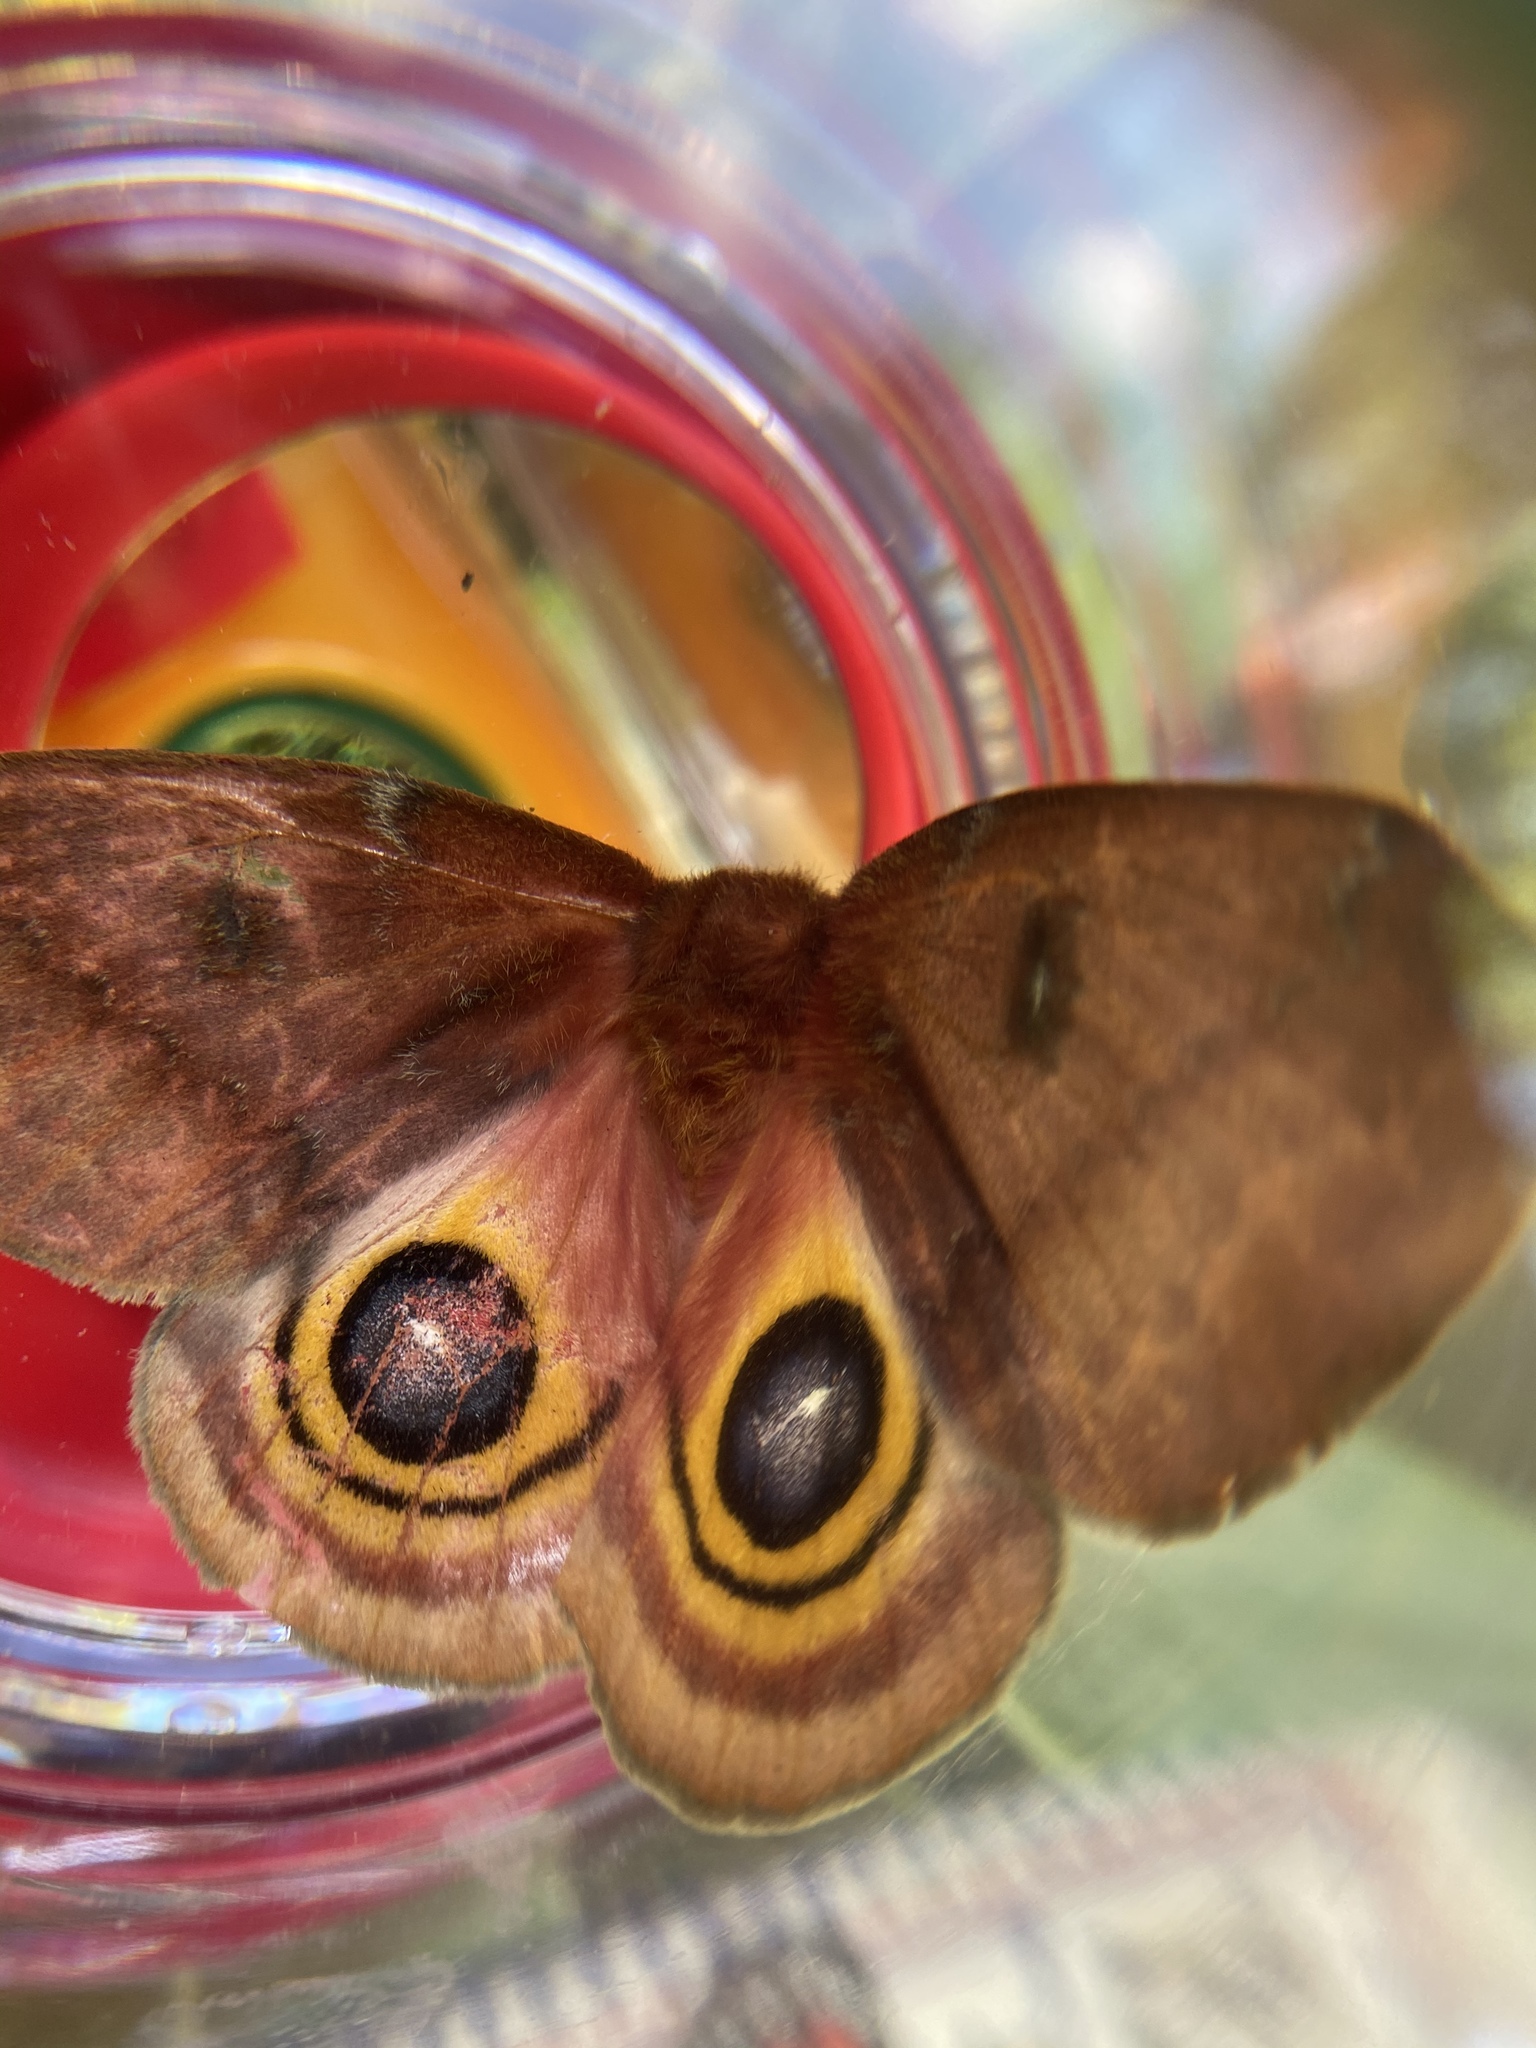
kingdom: Animalia
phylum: Arthropoda
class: Insecta
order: Lepidoptera
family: Saturniidae
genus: Automeris
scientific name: Automeris io
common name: Io moth
